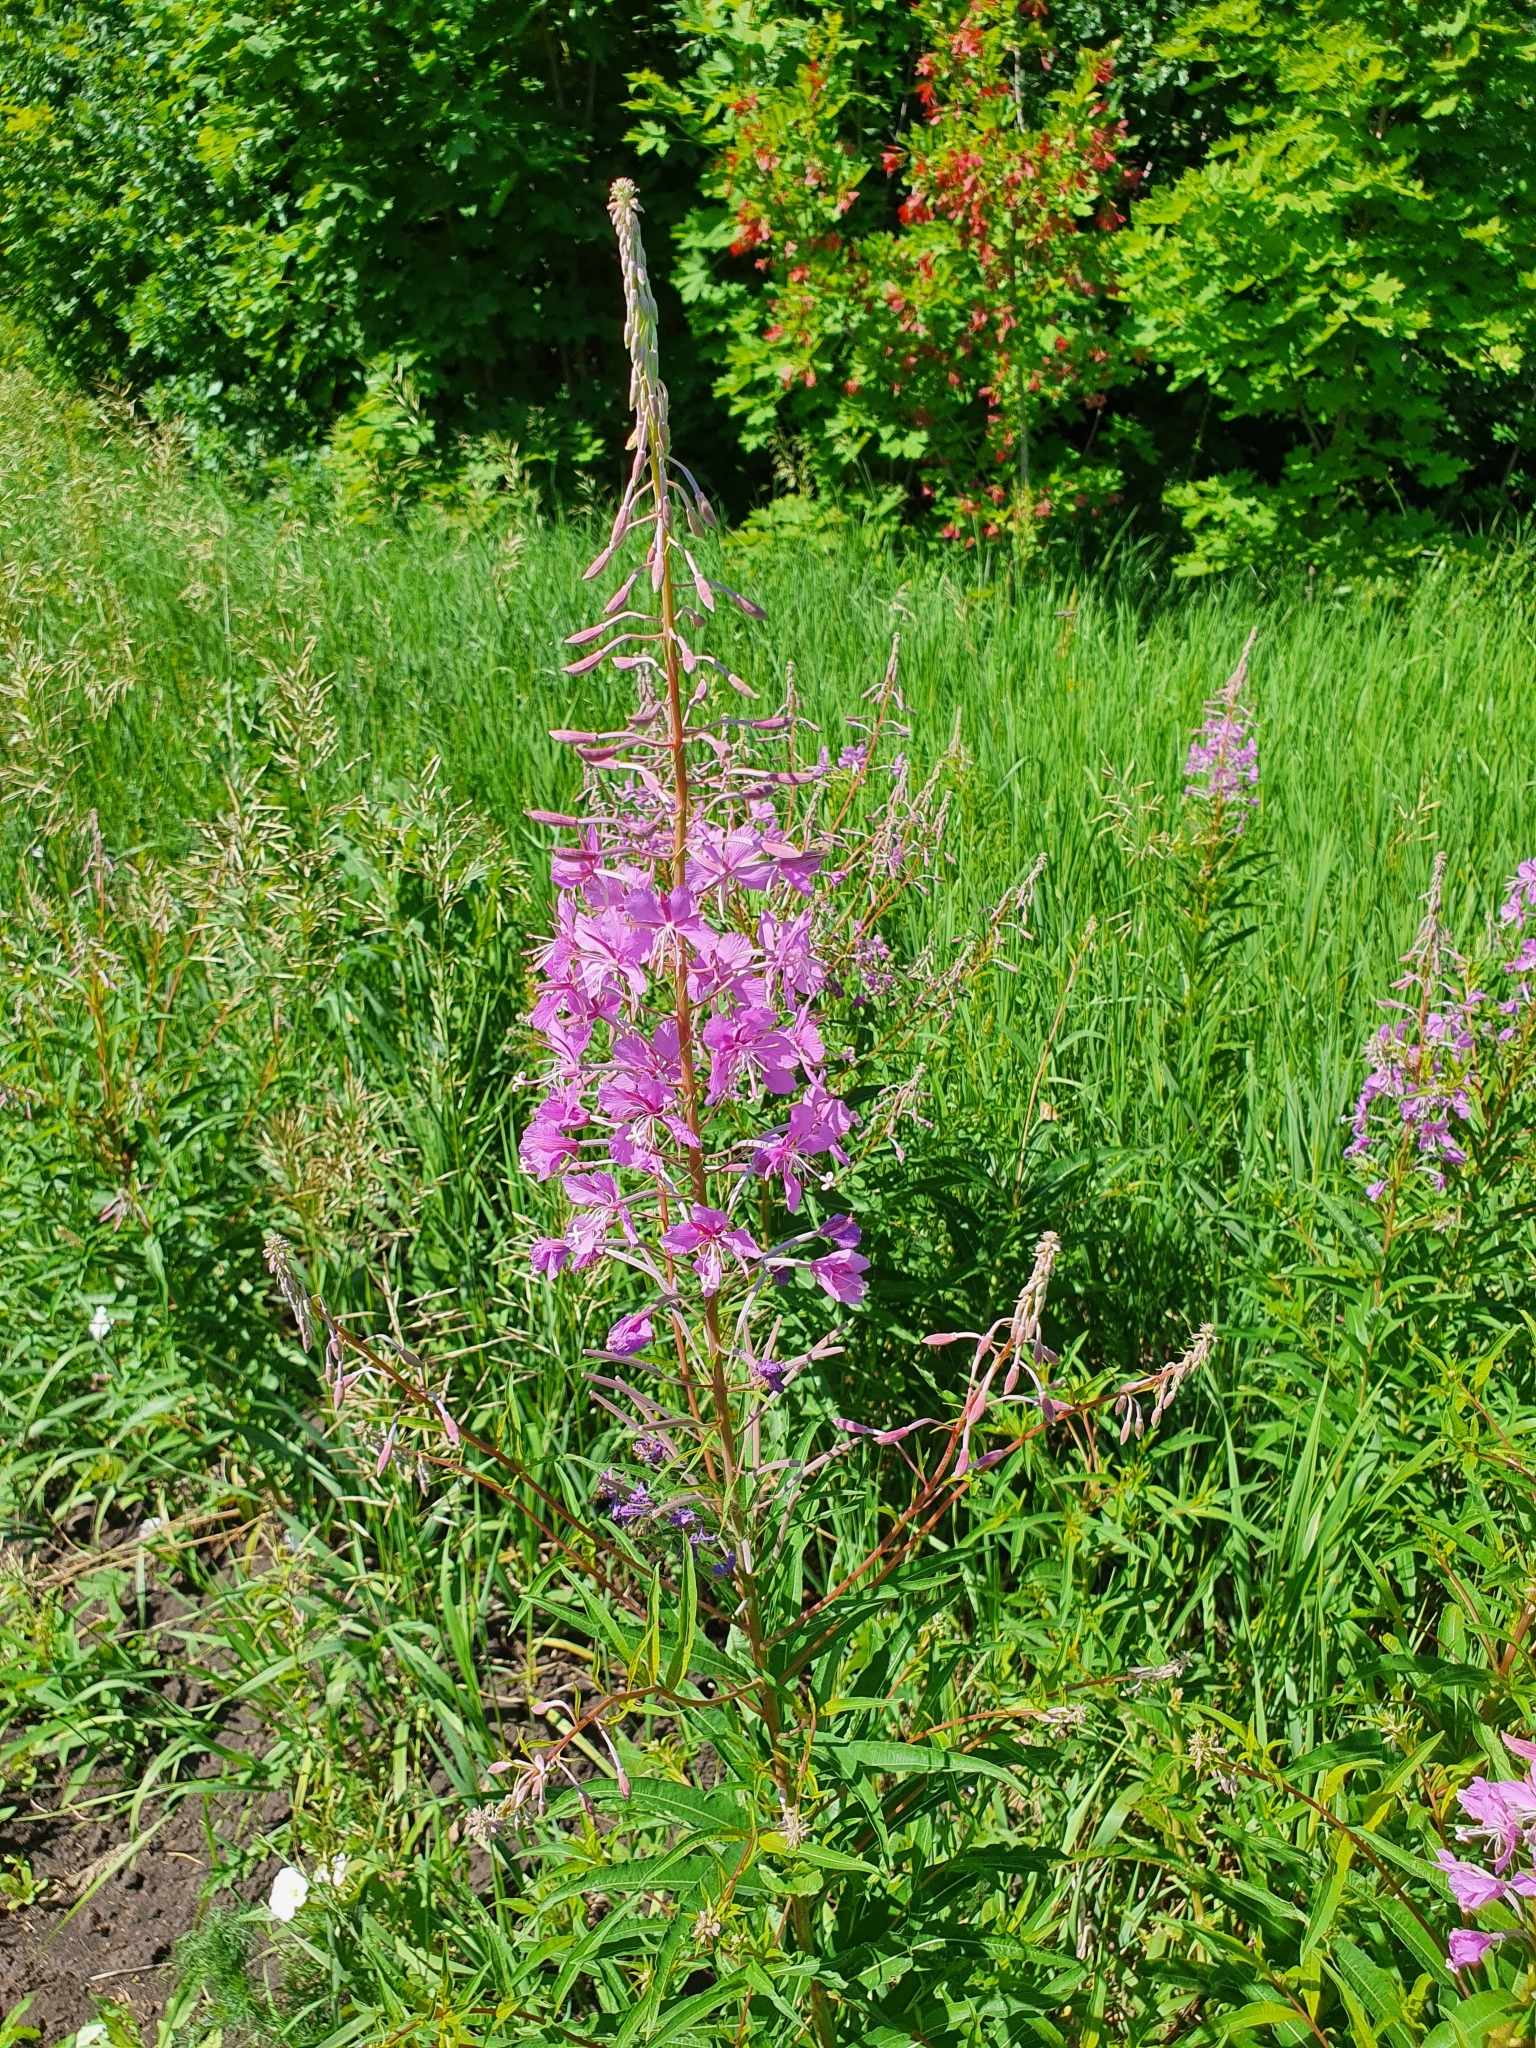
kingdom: Plantae
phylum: Tracheophyta
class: Magnoliopsida
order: Myrtales
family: Onagraceae
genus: Chamaenerion
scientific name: Chamaenerion angustifolium
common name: Fireweed
